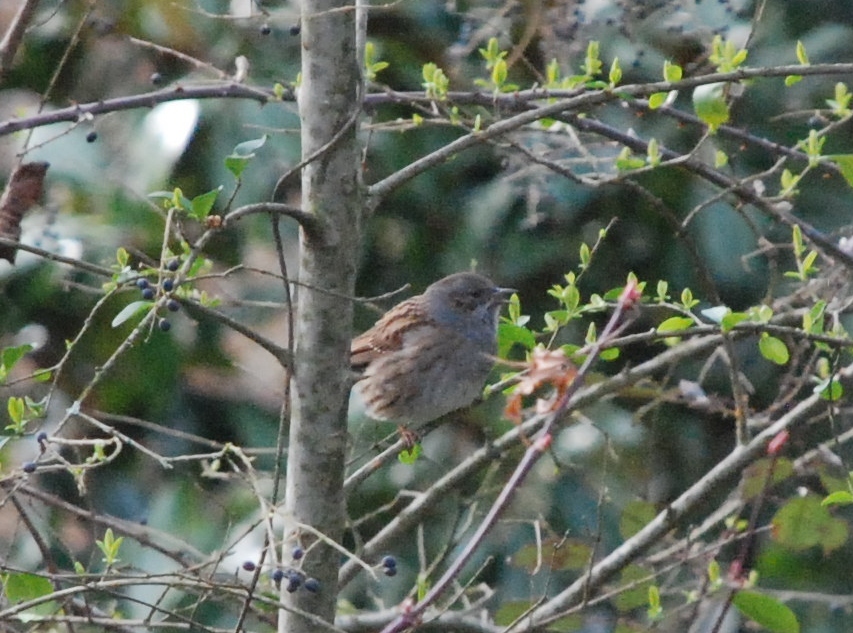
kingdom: Animalia
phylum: Chordata
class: Aves
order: Passeriformes
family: Prunellidae
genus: Prunella
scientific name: Prunella modularis
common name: Dunnock
